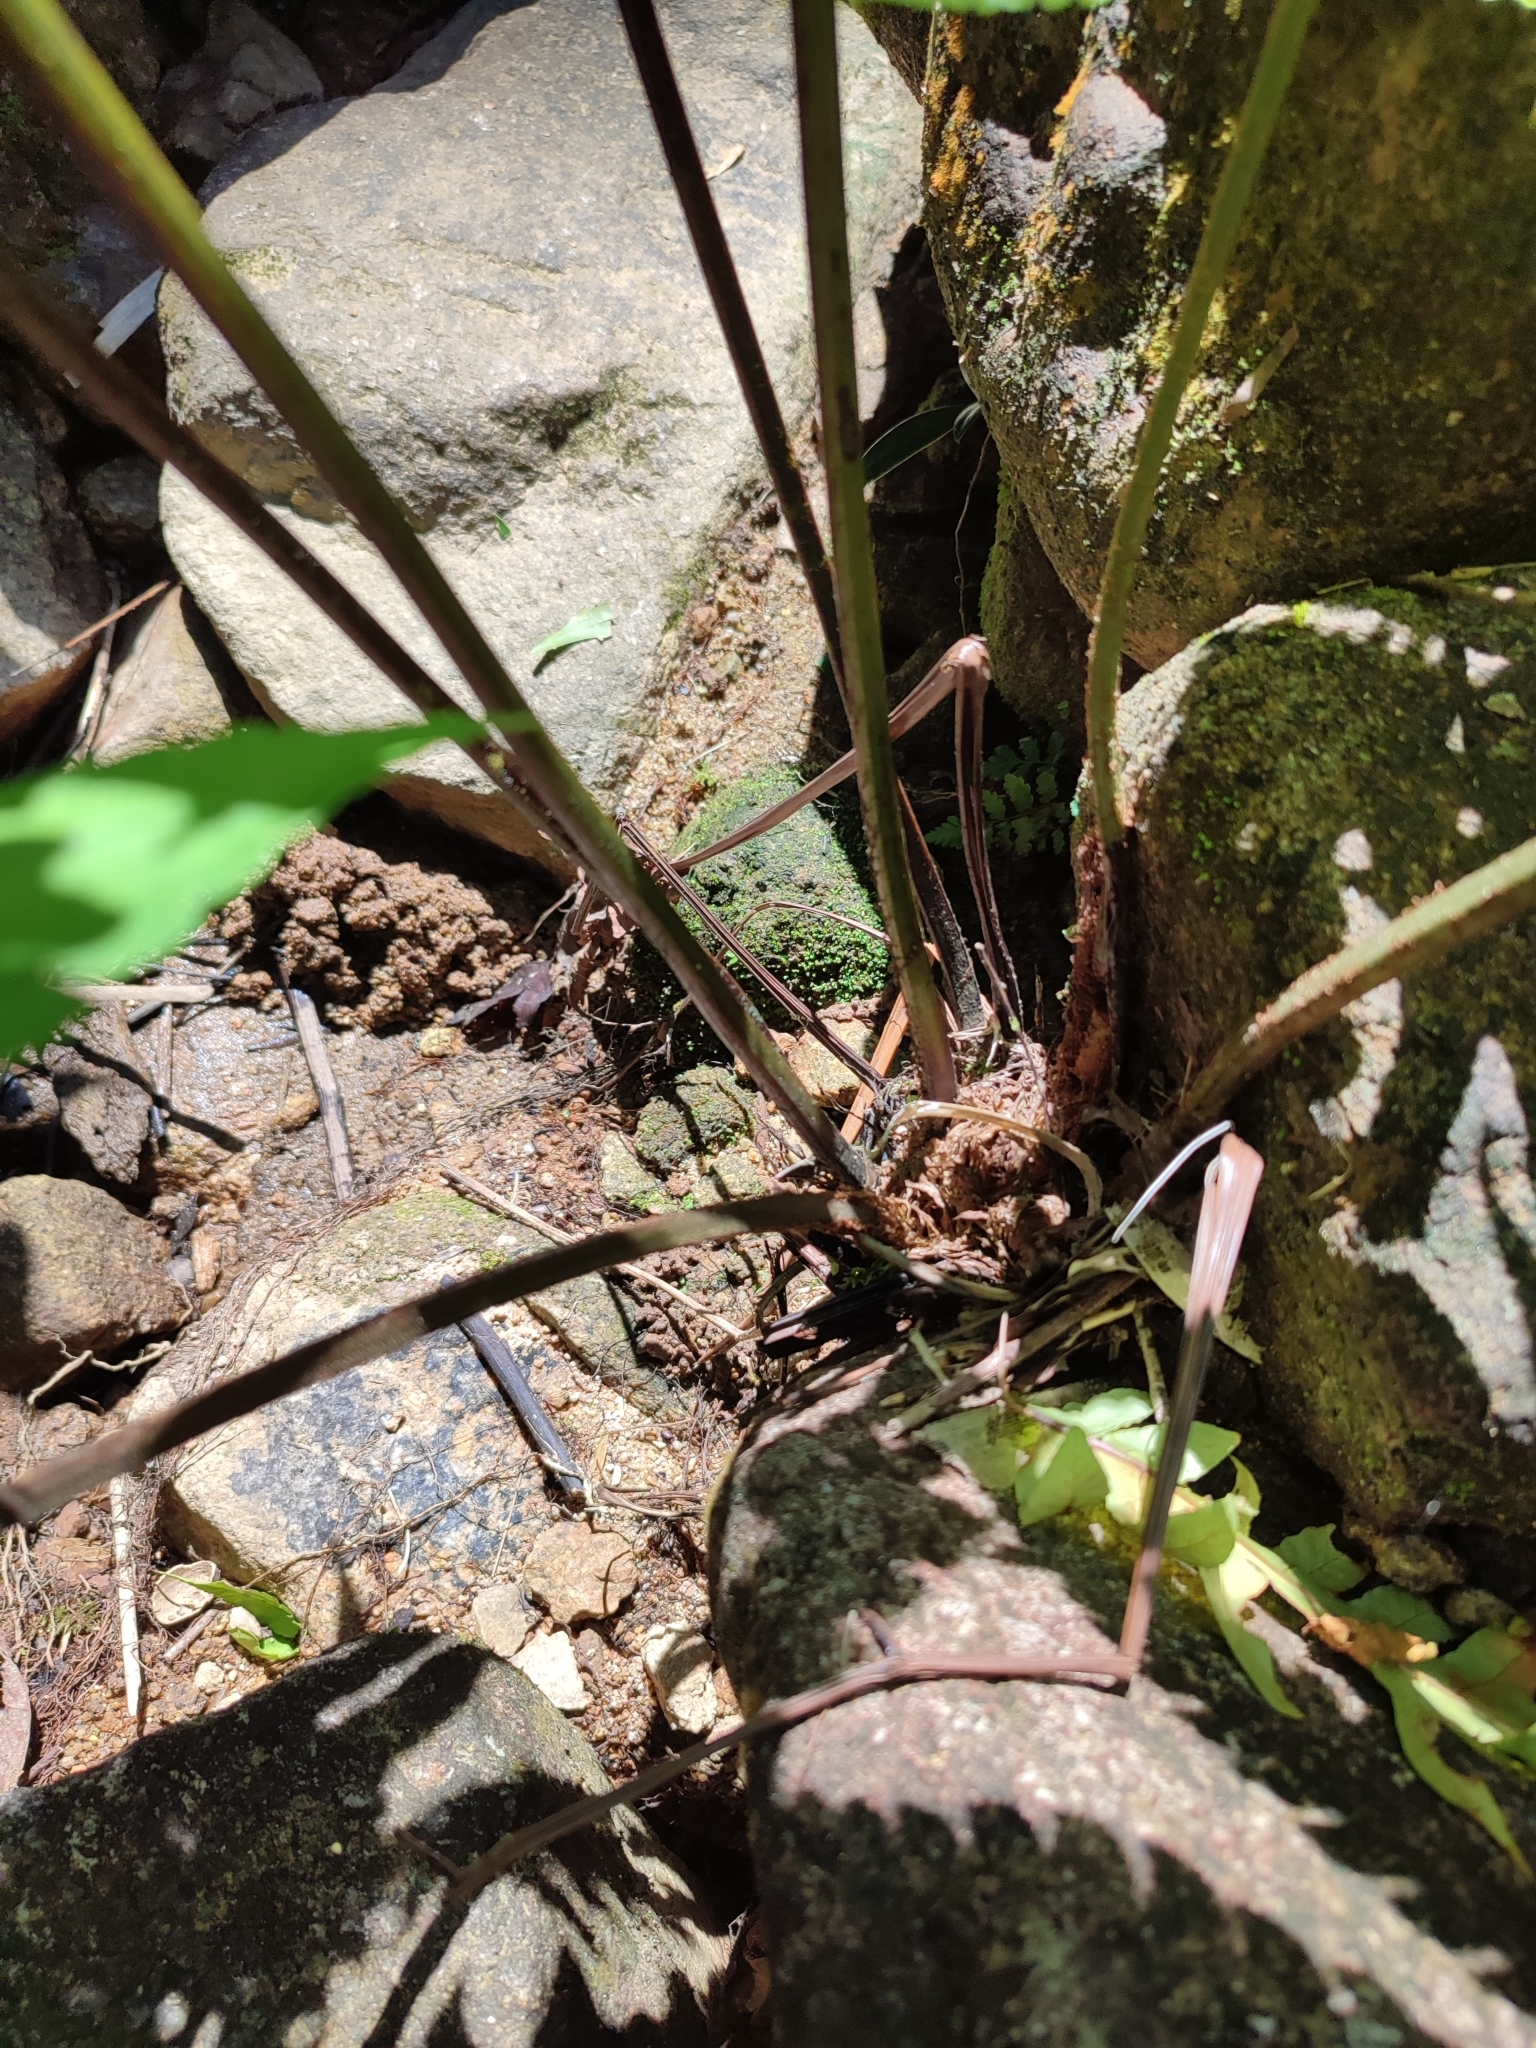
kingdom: Plantae
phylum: Tracheophyta
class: Polypodiopsida
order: Polypodiales
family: Dryopteridaceae
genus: Pleocnemia
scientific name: Pleocnemia irregularis
